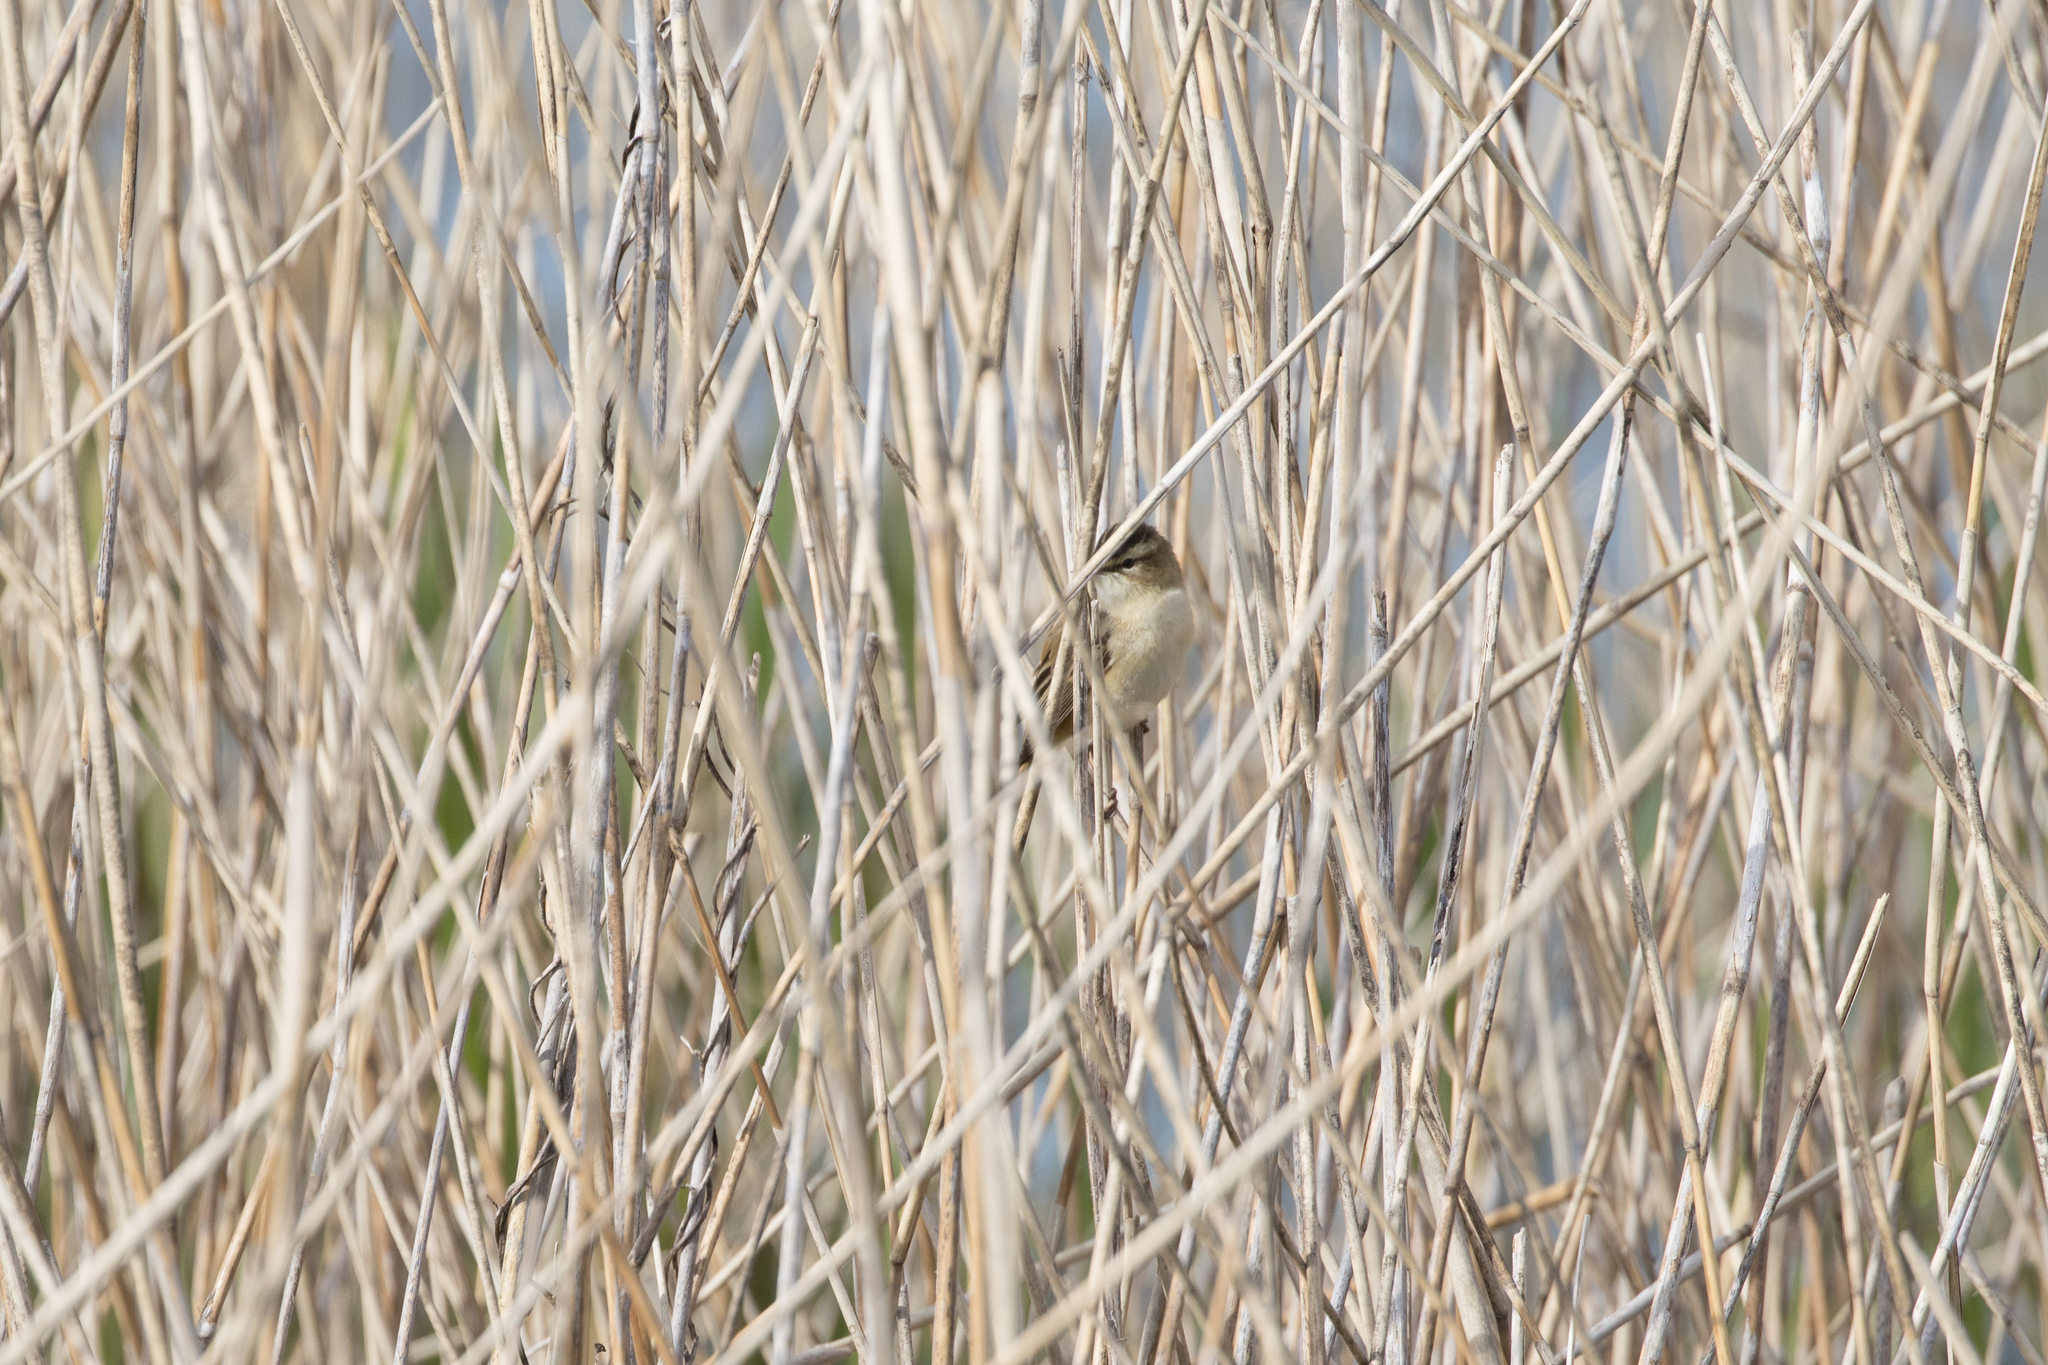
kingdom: Animalia
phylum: Chordata
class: Aves
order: Passeriformes
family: Acrocephalidae
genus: Acrocephalus
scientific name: Acrocephalus schoenobaenus
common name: Sedge warbler
